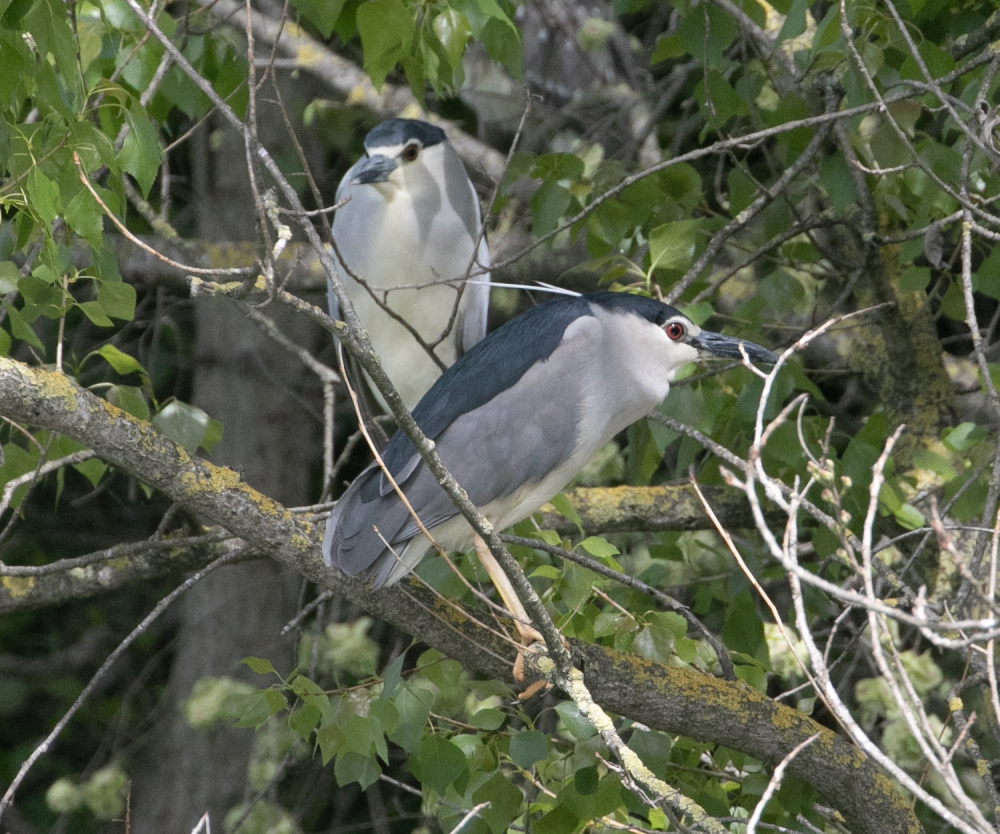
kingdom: Animalia
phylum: Chordata
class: Aves
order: Pelecaniformes
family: Ardeidae
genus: Nycticorax
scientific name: Nycticorax nycticorax
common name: Black-crowned night heron
